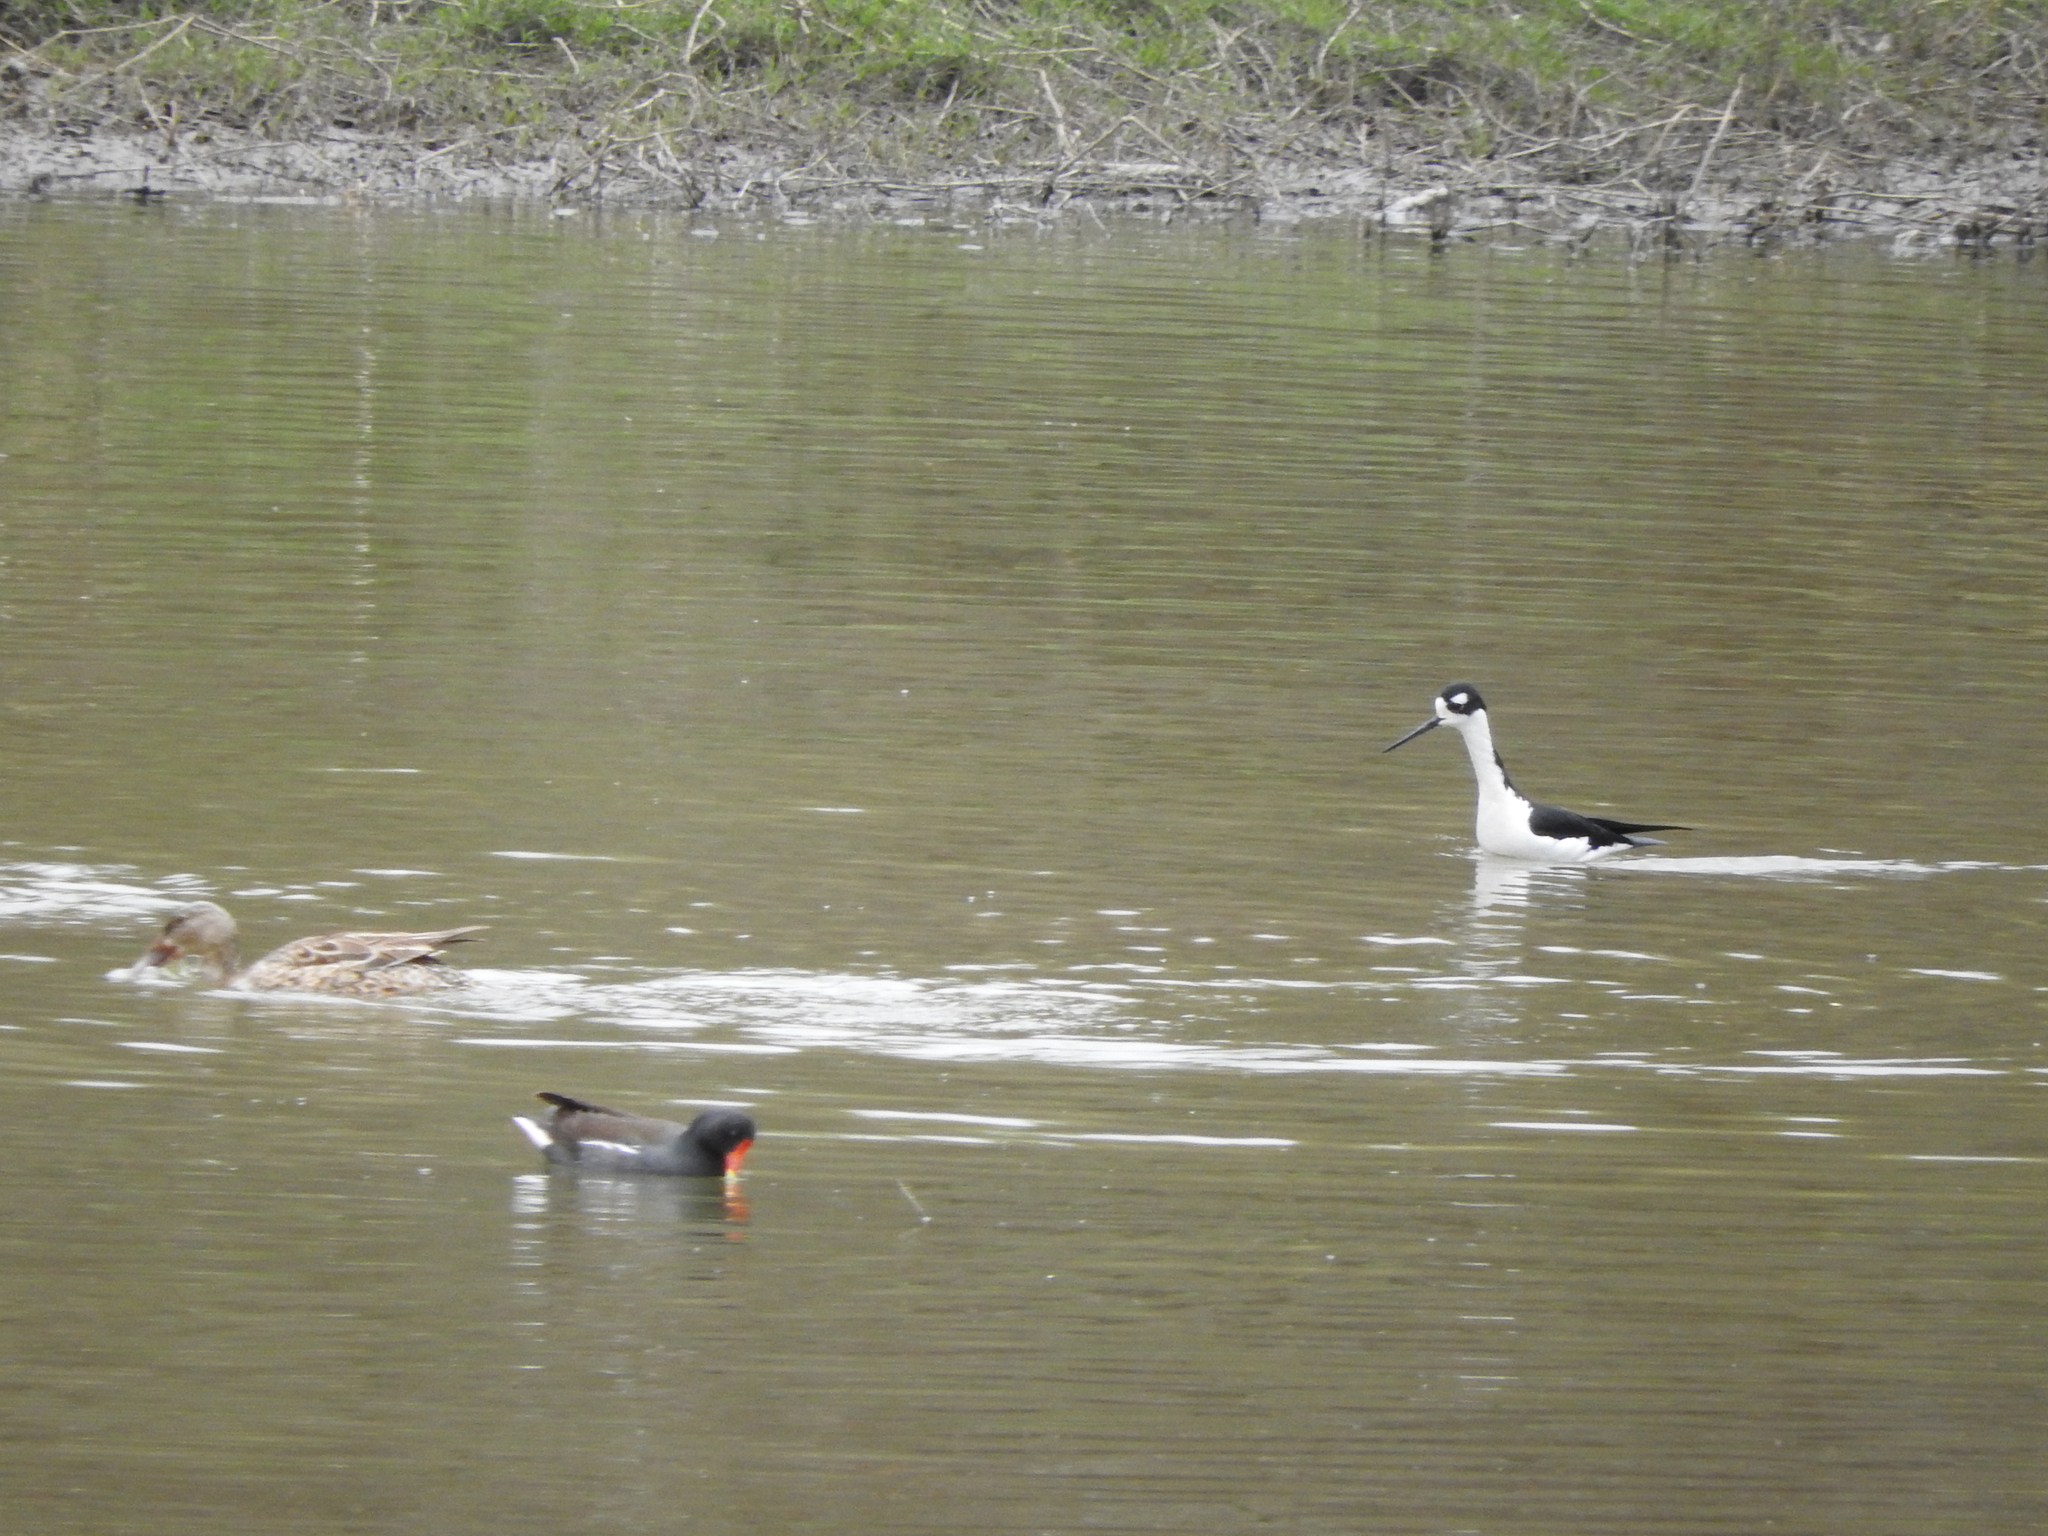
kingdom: Animalia
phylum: Chordata
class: Aves
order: Charadriiformes
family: Recurvirostridae
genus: Himantopus
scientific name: Himantopus mexicanus
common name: Black-necked stilt
